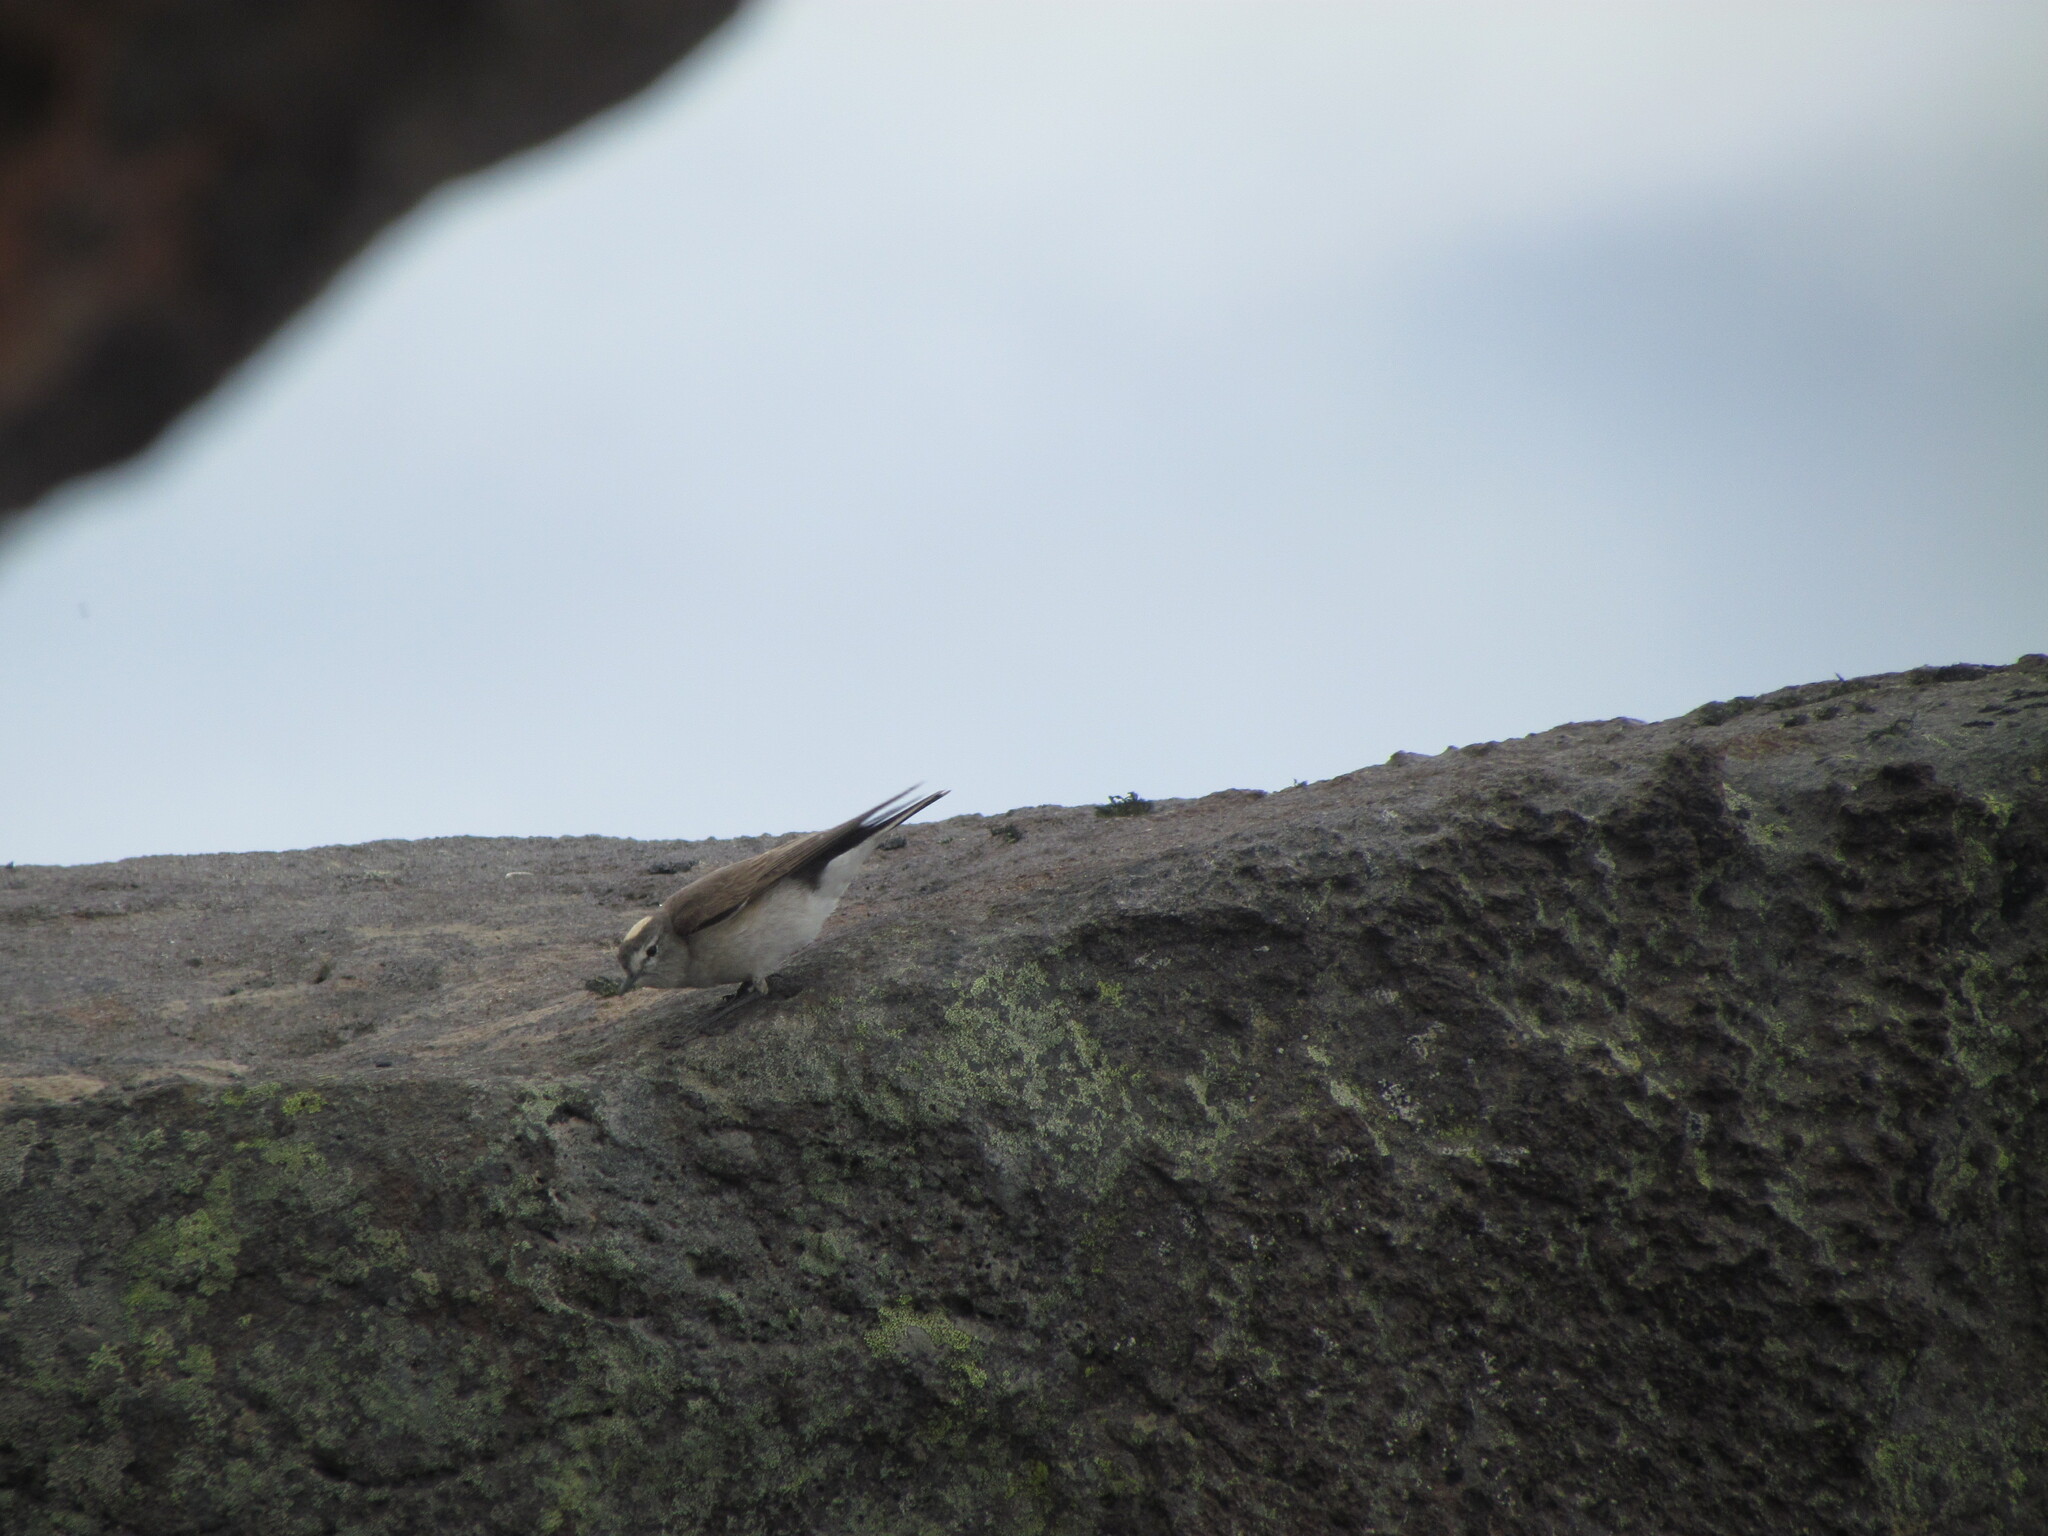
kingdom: Animalia
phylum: Chordata
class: Aves
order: Passeriformes
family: Tyrannidae
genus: Muscisaxicola
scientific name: Muscisaxicola flavinucha
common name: Ochre-naped ground tyrant
